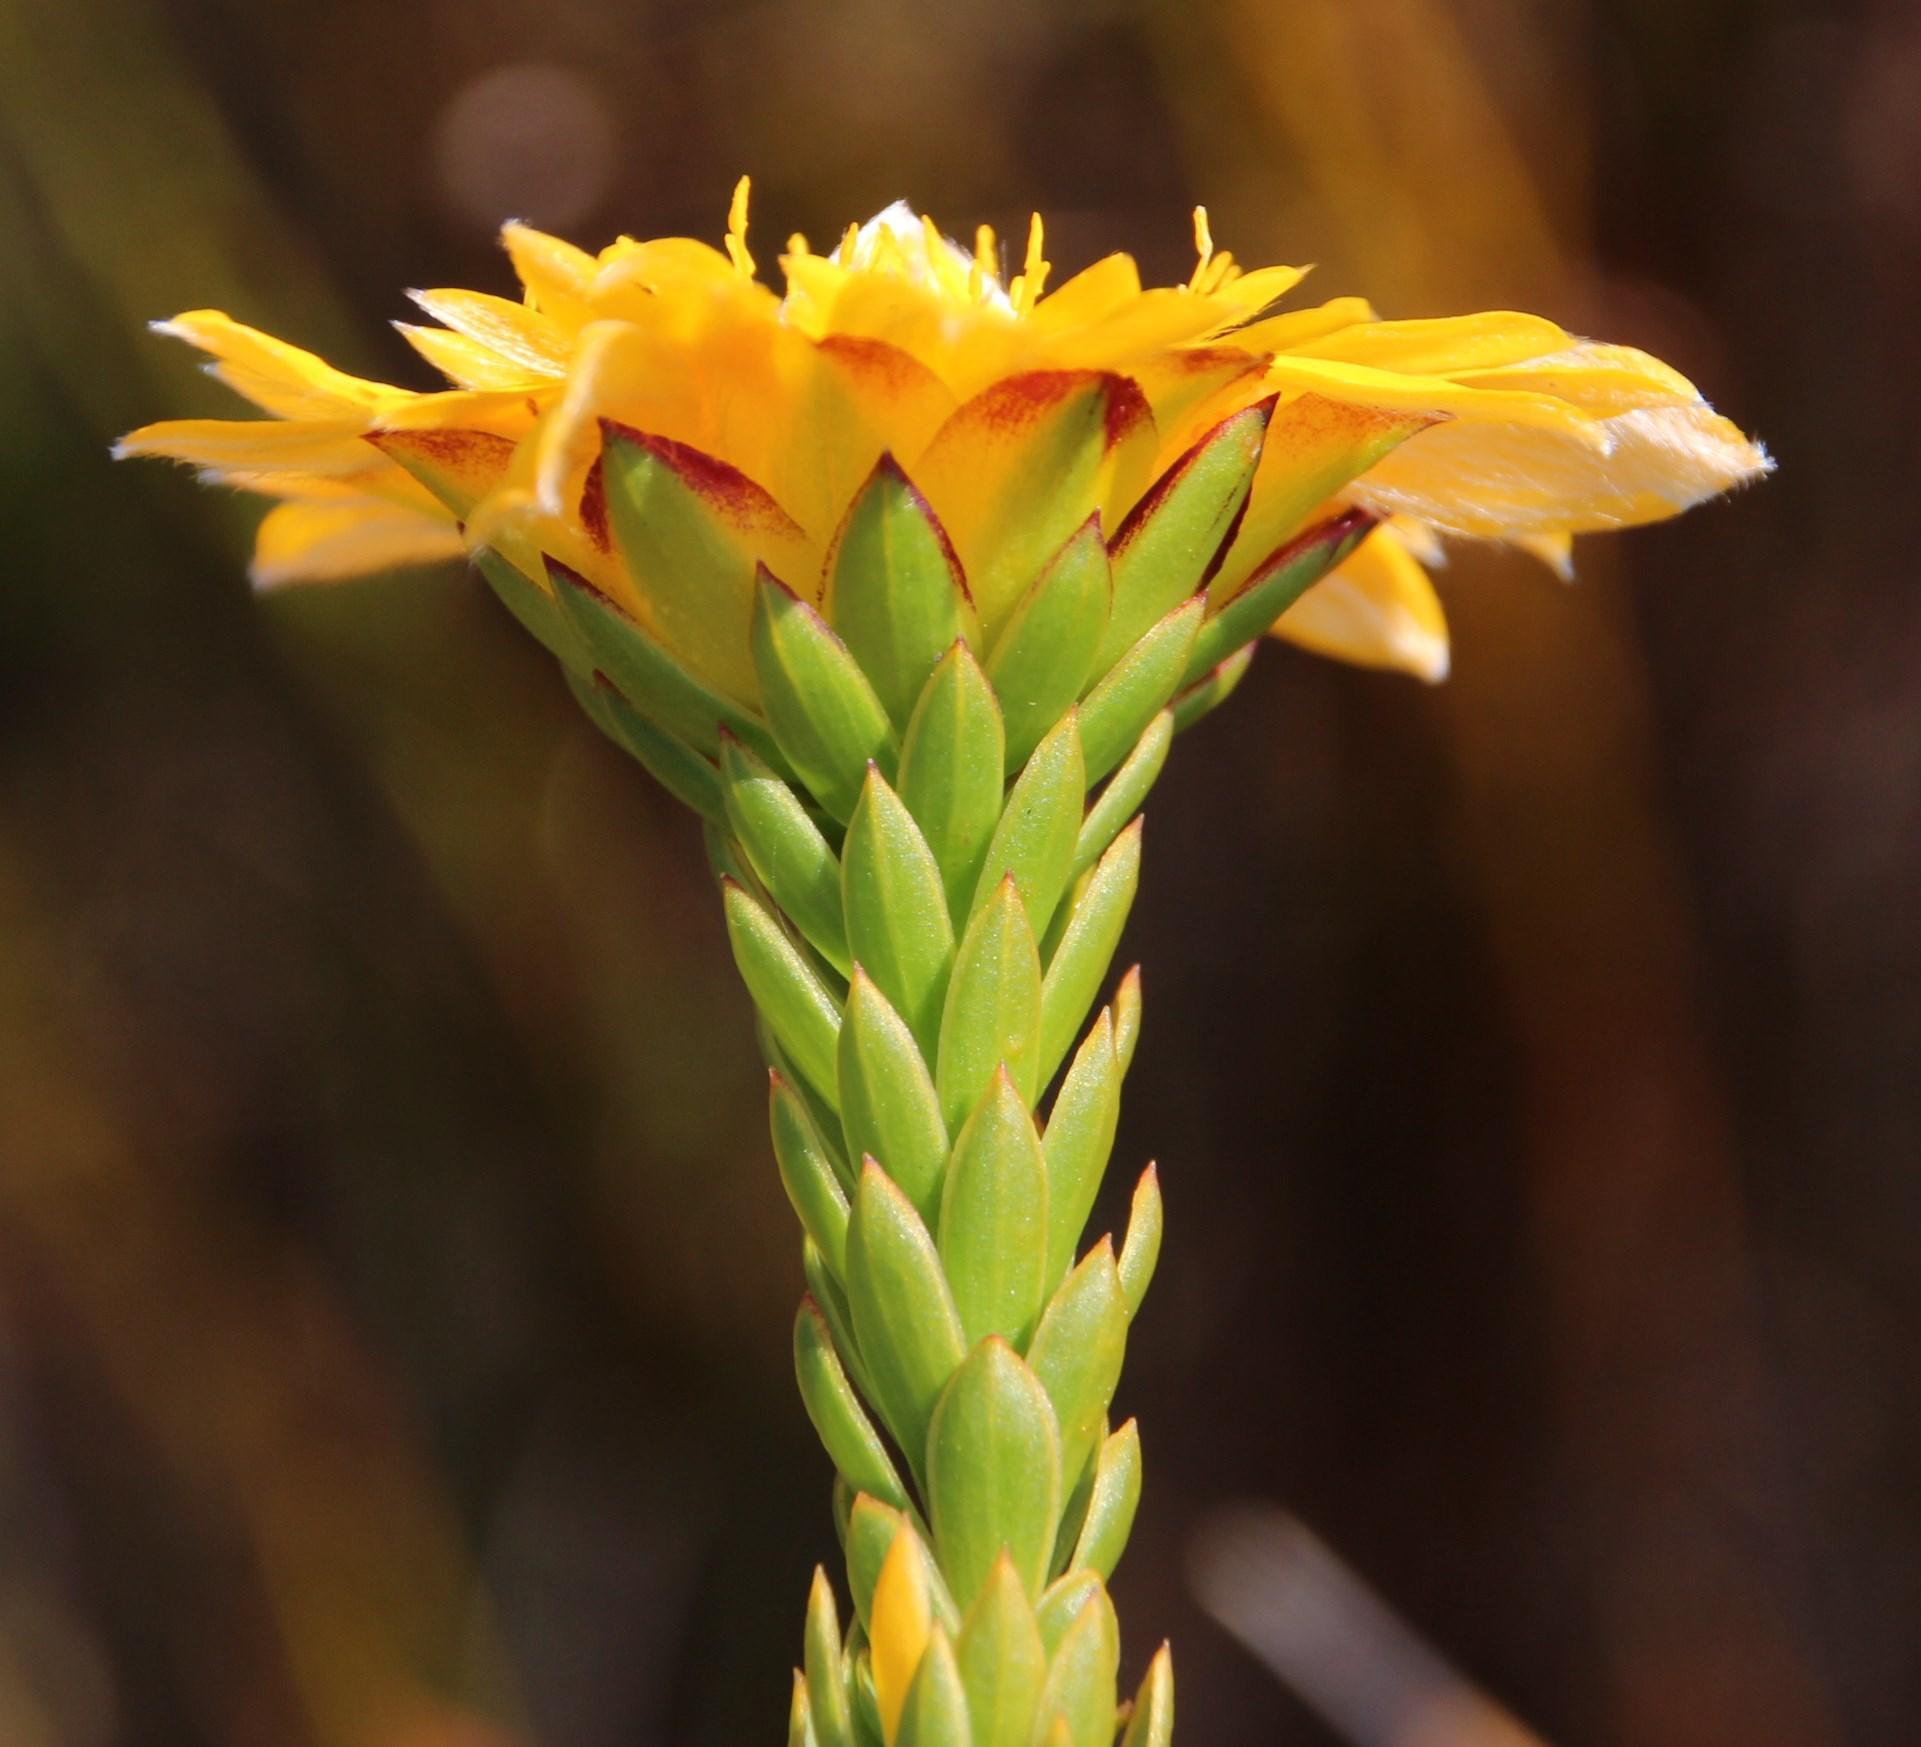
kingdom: Plantae
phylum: Tracheophyta
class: Magnoliopsida
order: Malvales
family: Thymelaeaceae
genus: Lachnaea
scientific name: Lachnaea aurea
